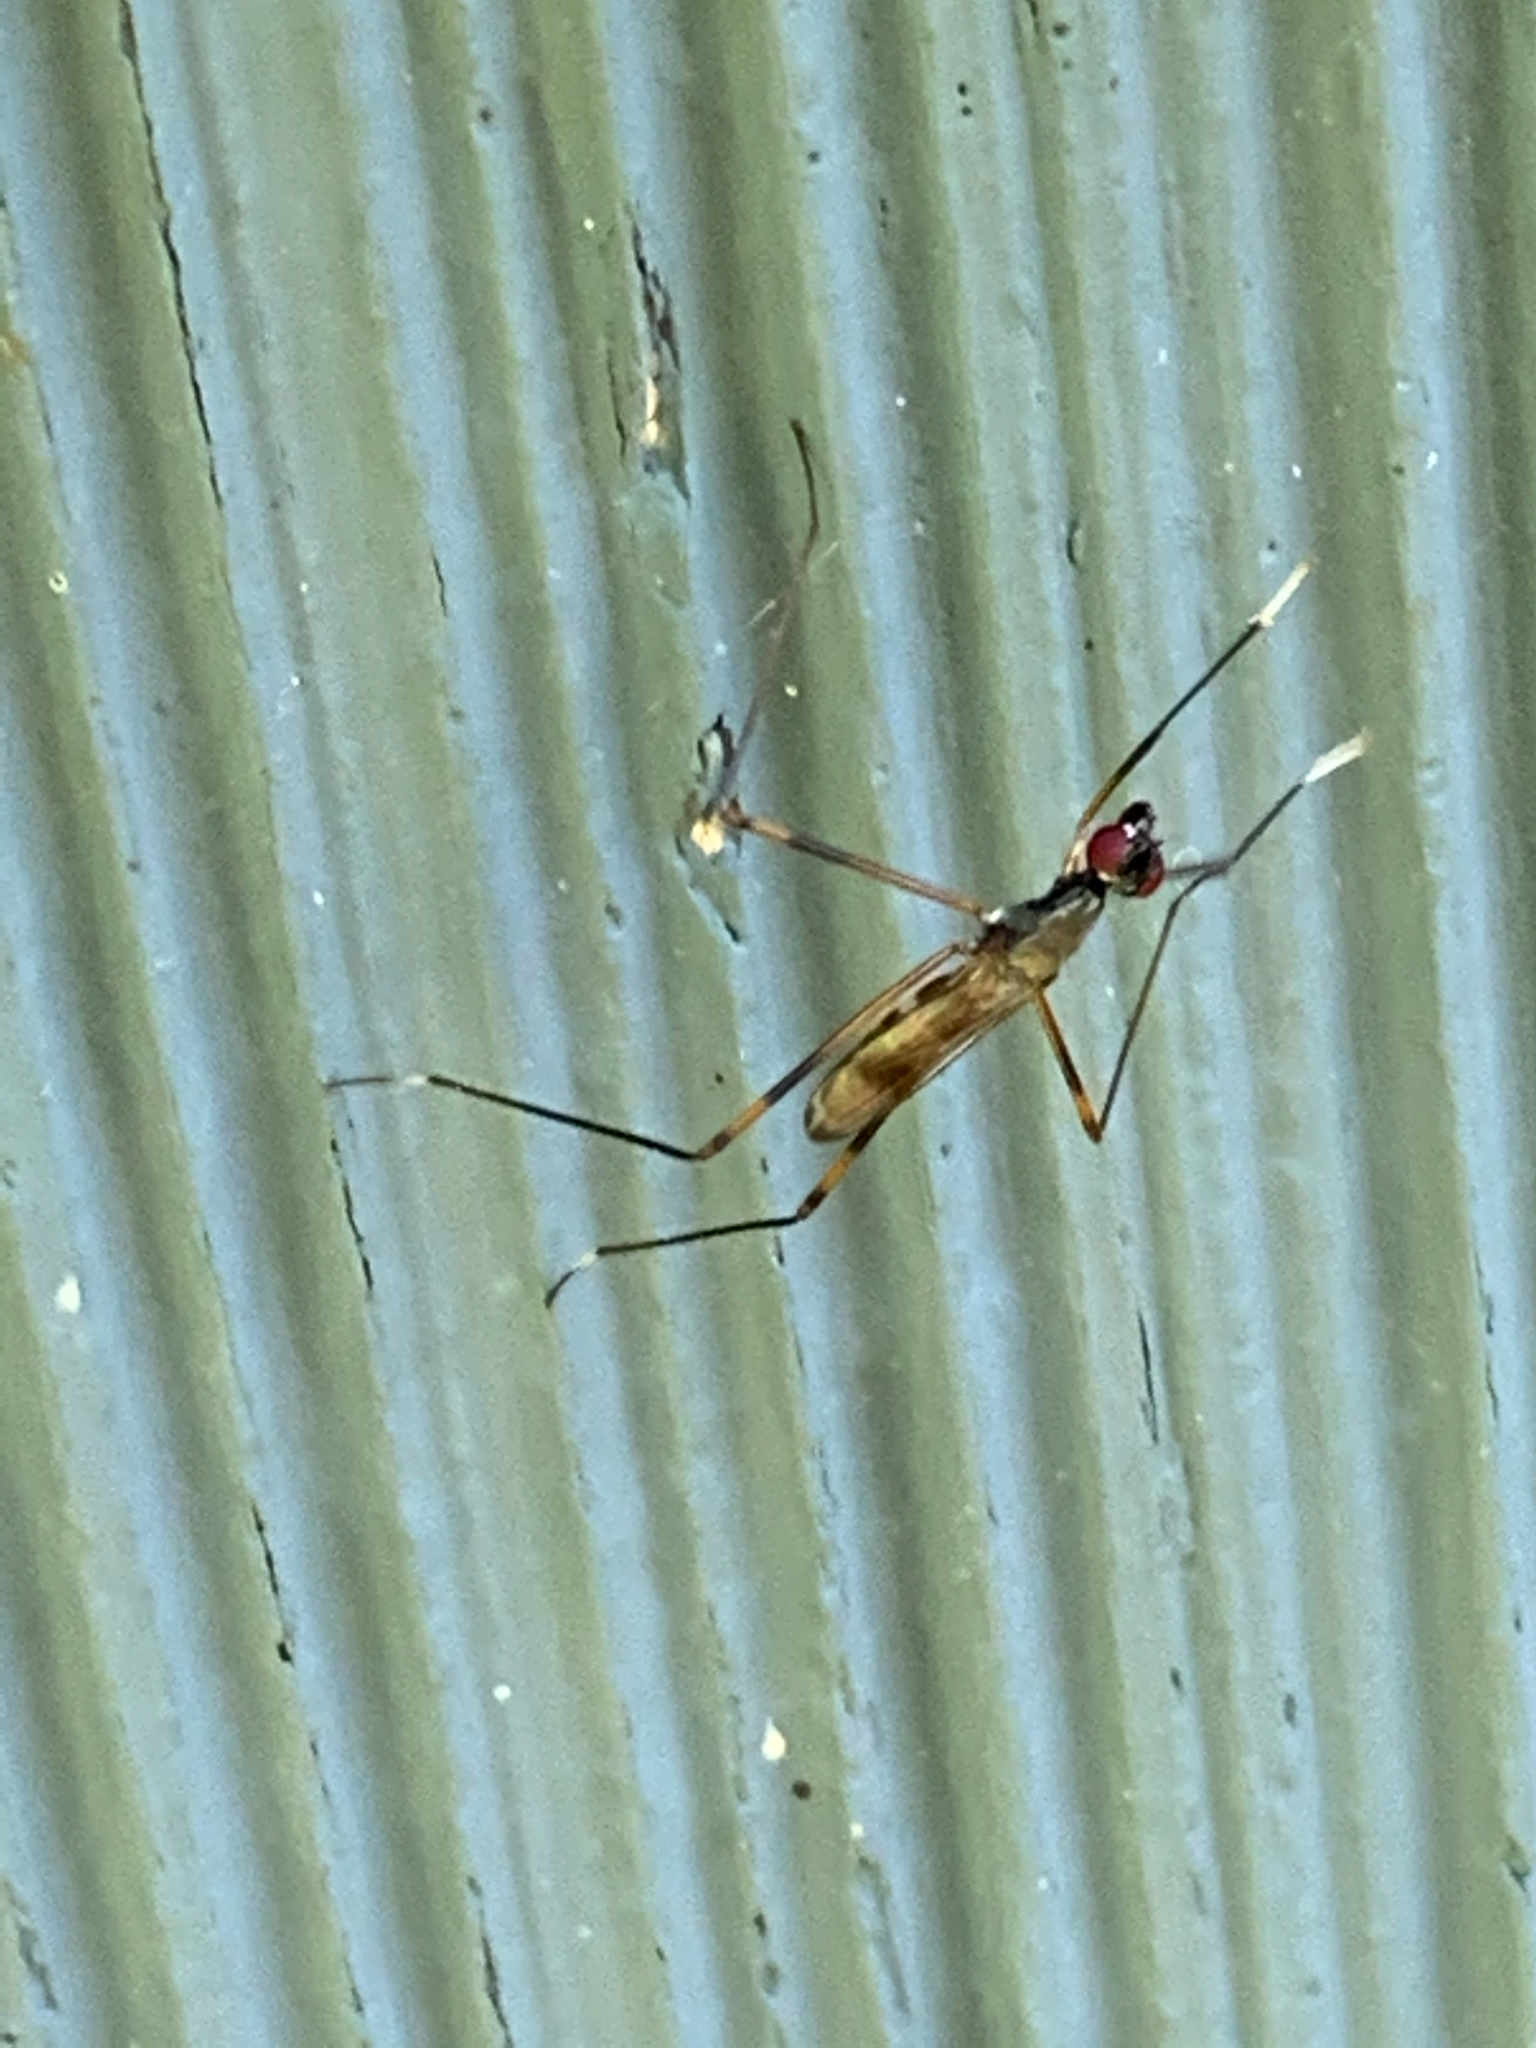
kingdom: Animalia
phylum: Arthropoda
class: Insecta
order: Diptera
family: Micropezidae
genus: Rainieria
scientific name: Rainieria antennaepes
